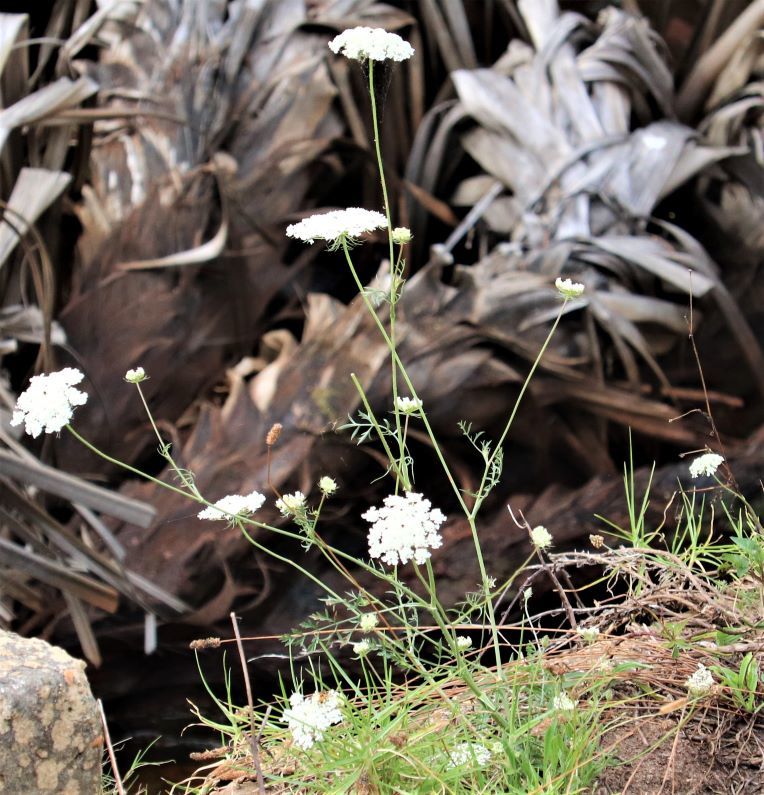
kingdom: Plantae
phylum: Tracheophyta
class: Magnoliopsida
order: Apiales
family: Apiaceae
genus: Daucus
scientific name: Daucus carota
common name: Wild carrot
